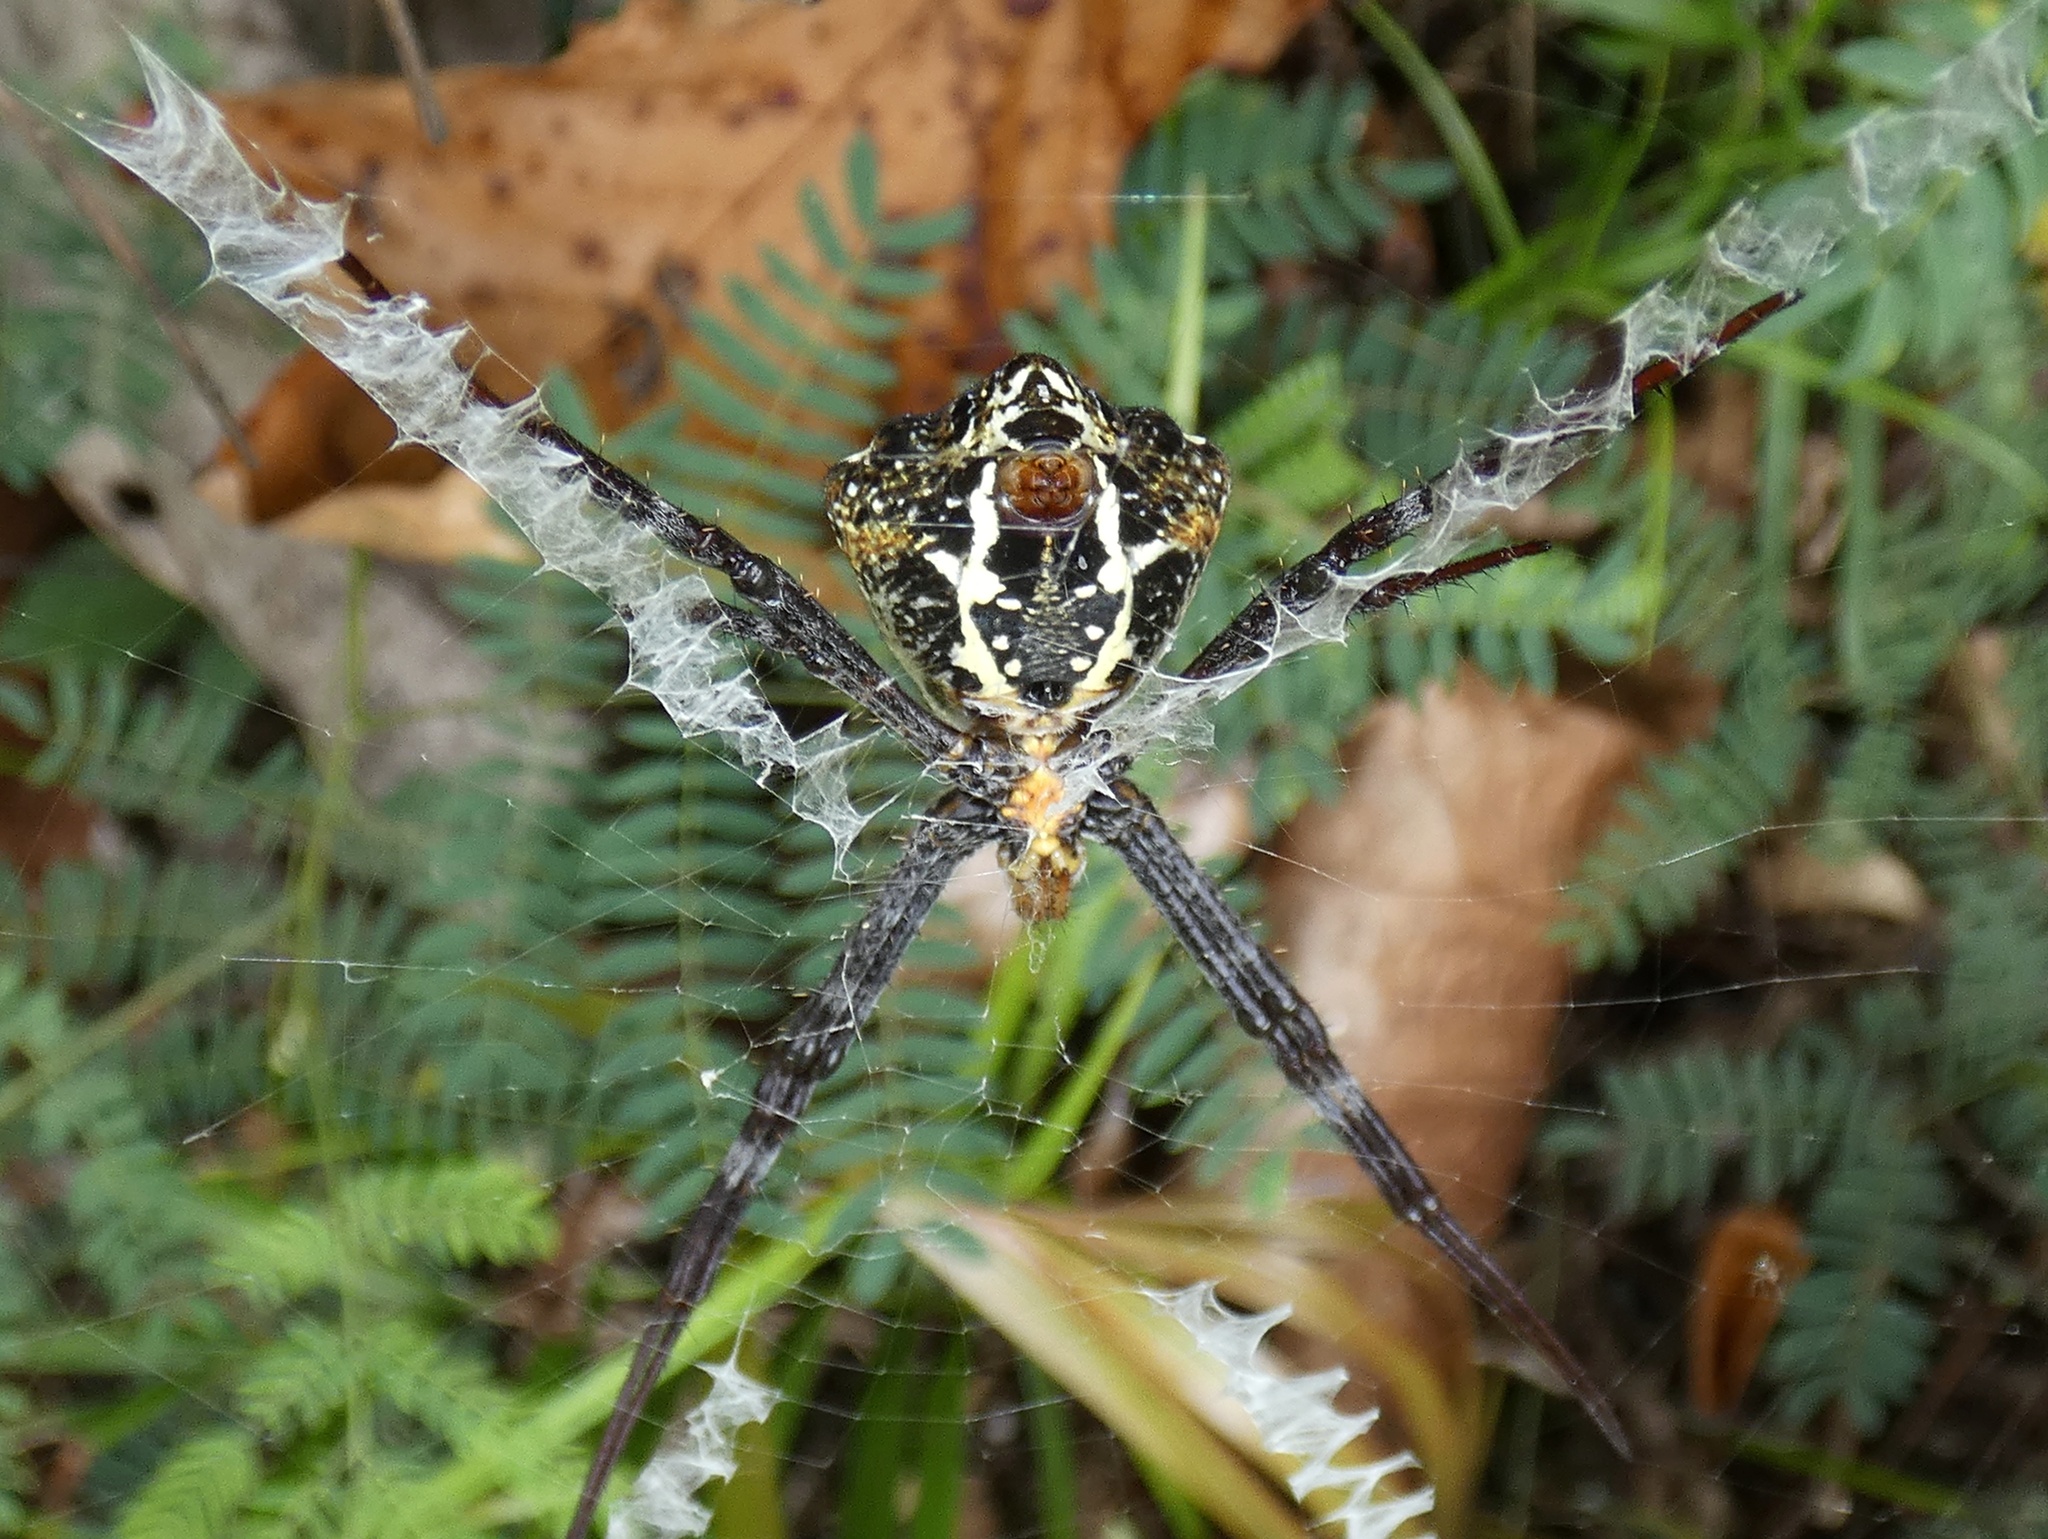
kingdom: Animalia
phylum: Arthropoda
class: Arachnida
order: Araneae
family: Araneidae
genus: Argiope
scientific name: Argiope luzona
